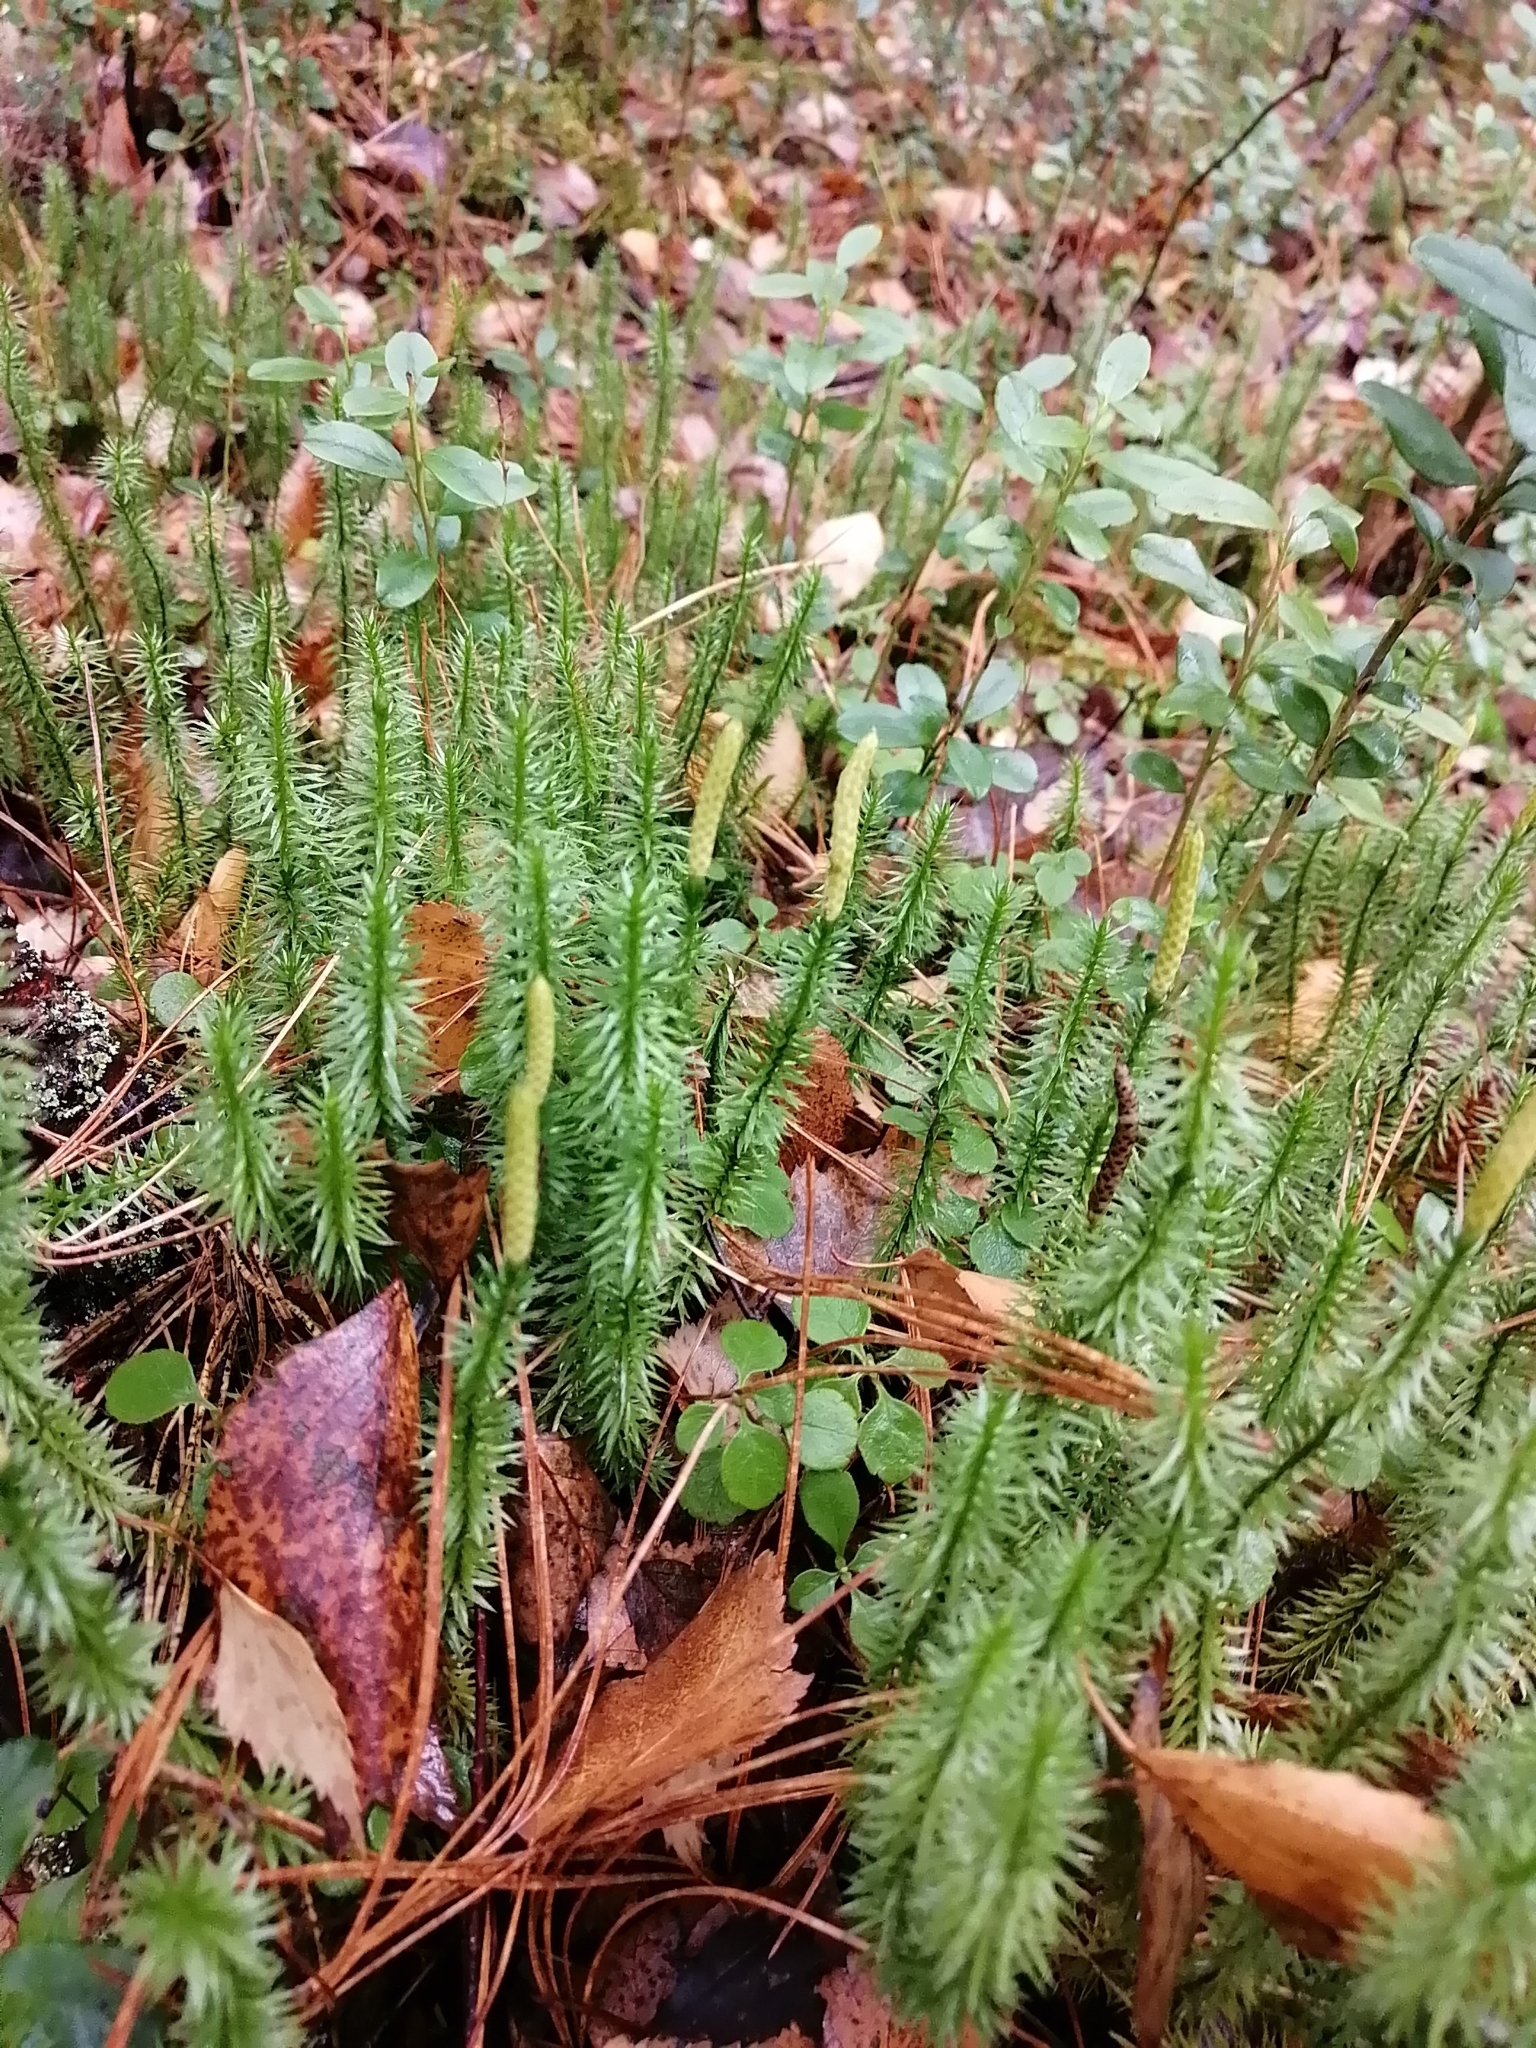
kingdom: Plantae
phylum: Tracheophyta
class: Lycopodiopsida
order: Lycopodiales
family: Lycopodiaceae
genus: Spinulum
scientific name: Spinulum annotinum
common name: Interrupted club-moss
